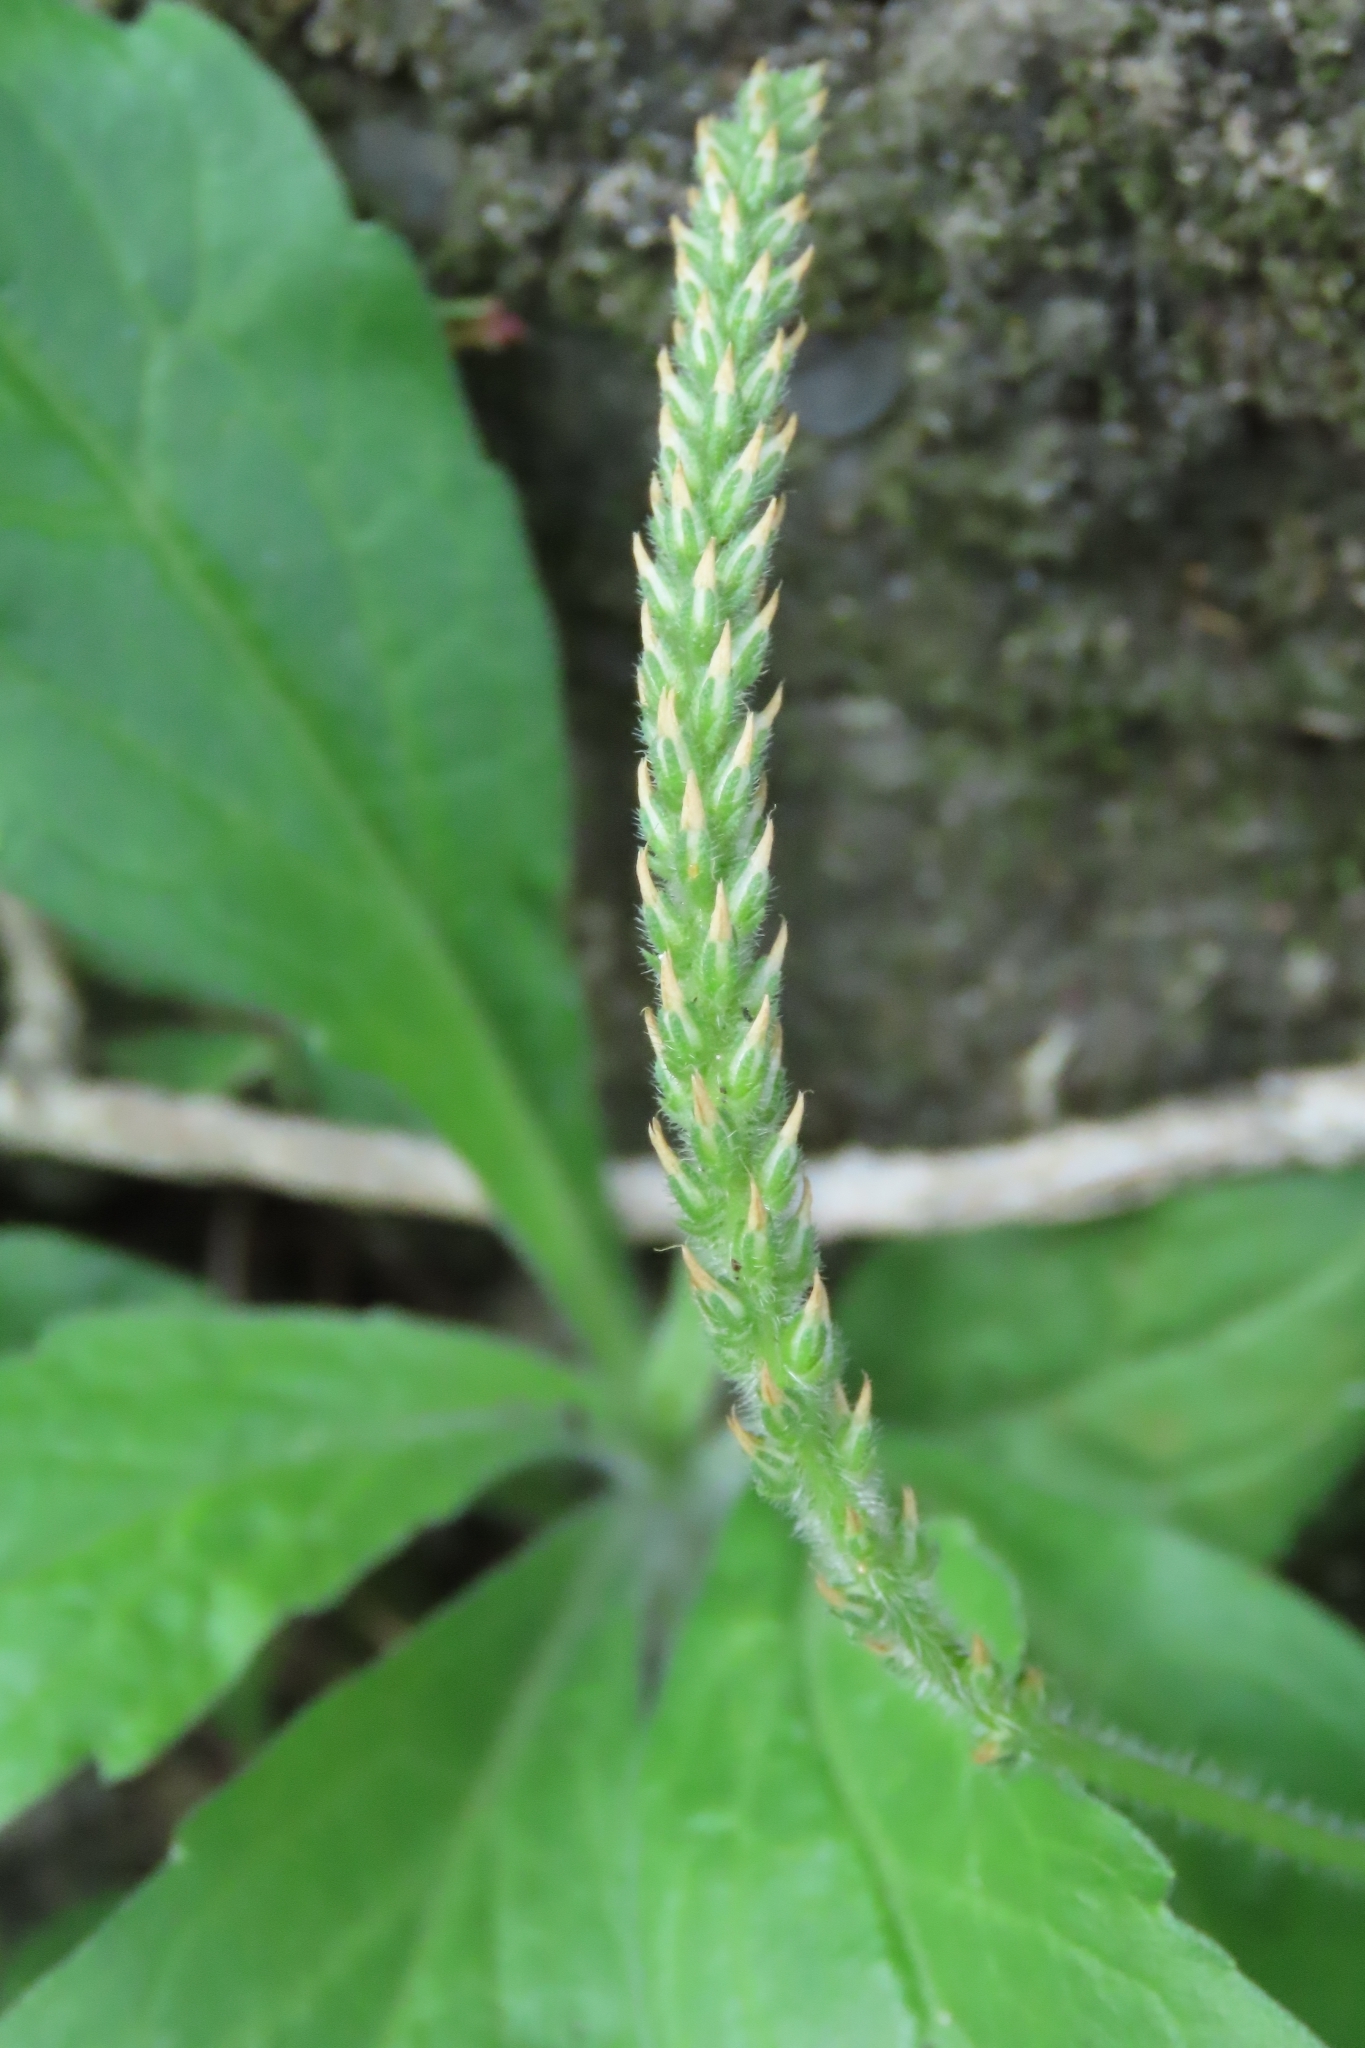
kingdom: Plantae
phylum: Tracheophyta
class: Magnoliopsida
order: Lamiales
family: Plantaginaceae
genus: Plantago
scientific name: Plantago virginica
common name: Hoary plantain
